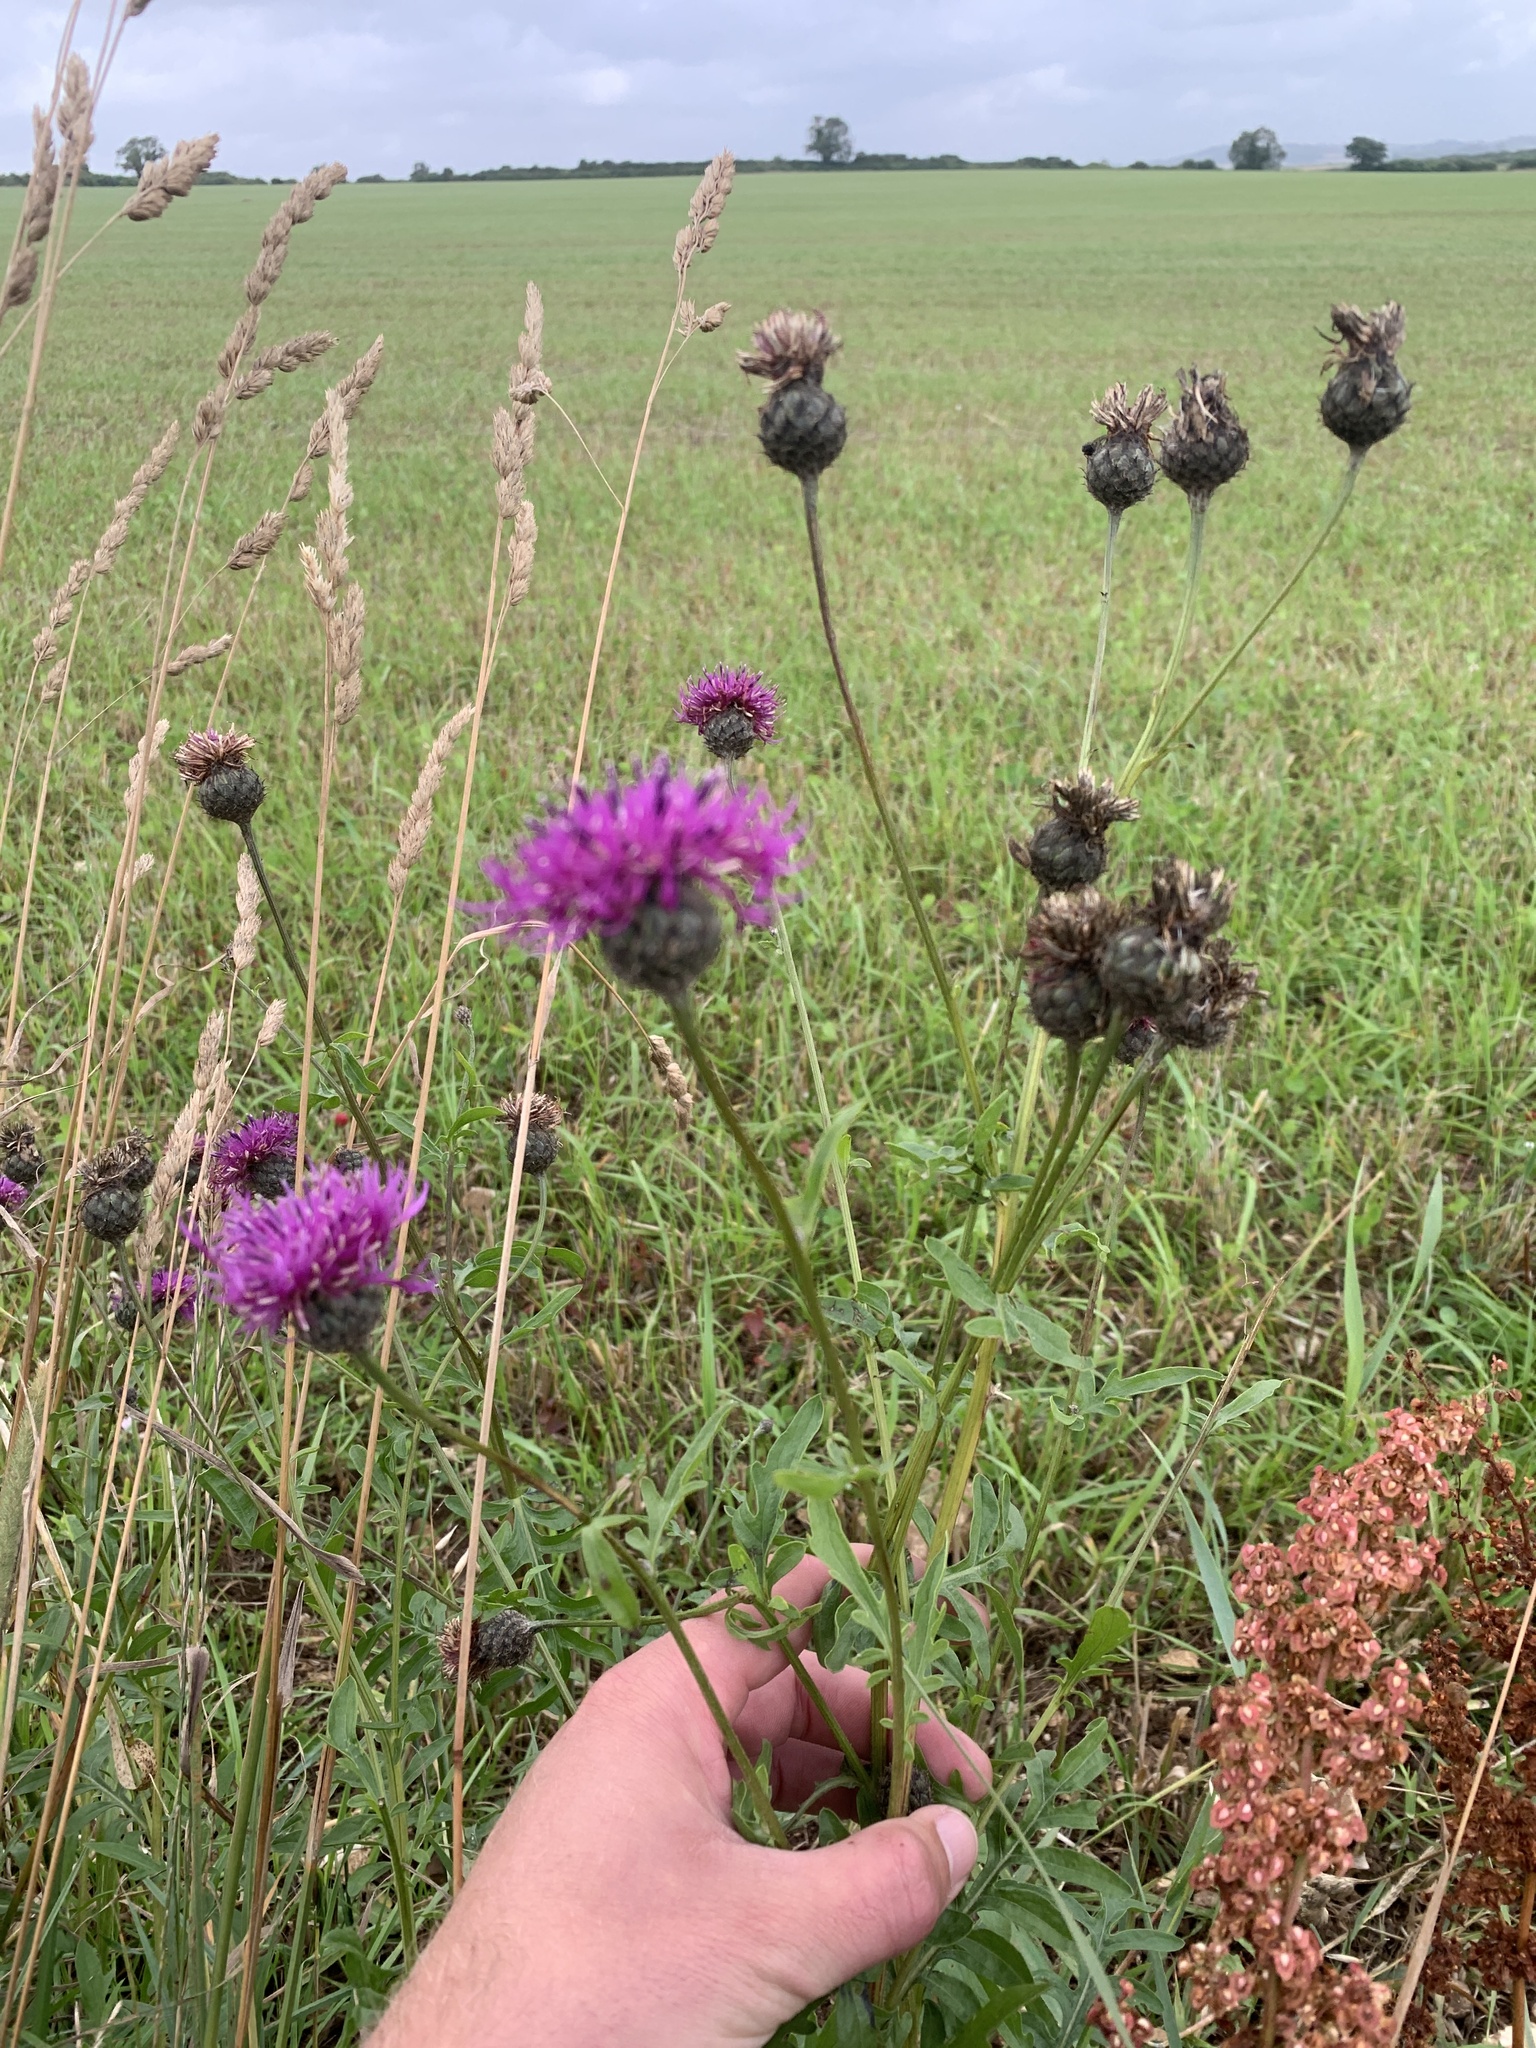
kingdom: Plantae
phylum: Tracheophyta
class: Magnoliopsida
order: Asterales
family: Asteraceae
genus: Cirsium
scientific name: Cirsium arvense
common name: Creeping thistle
